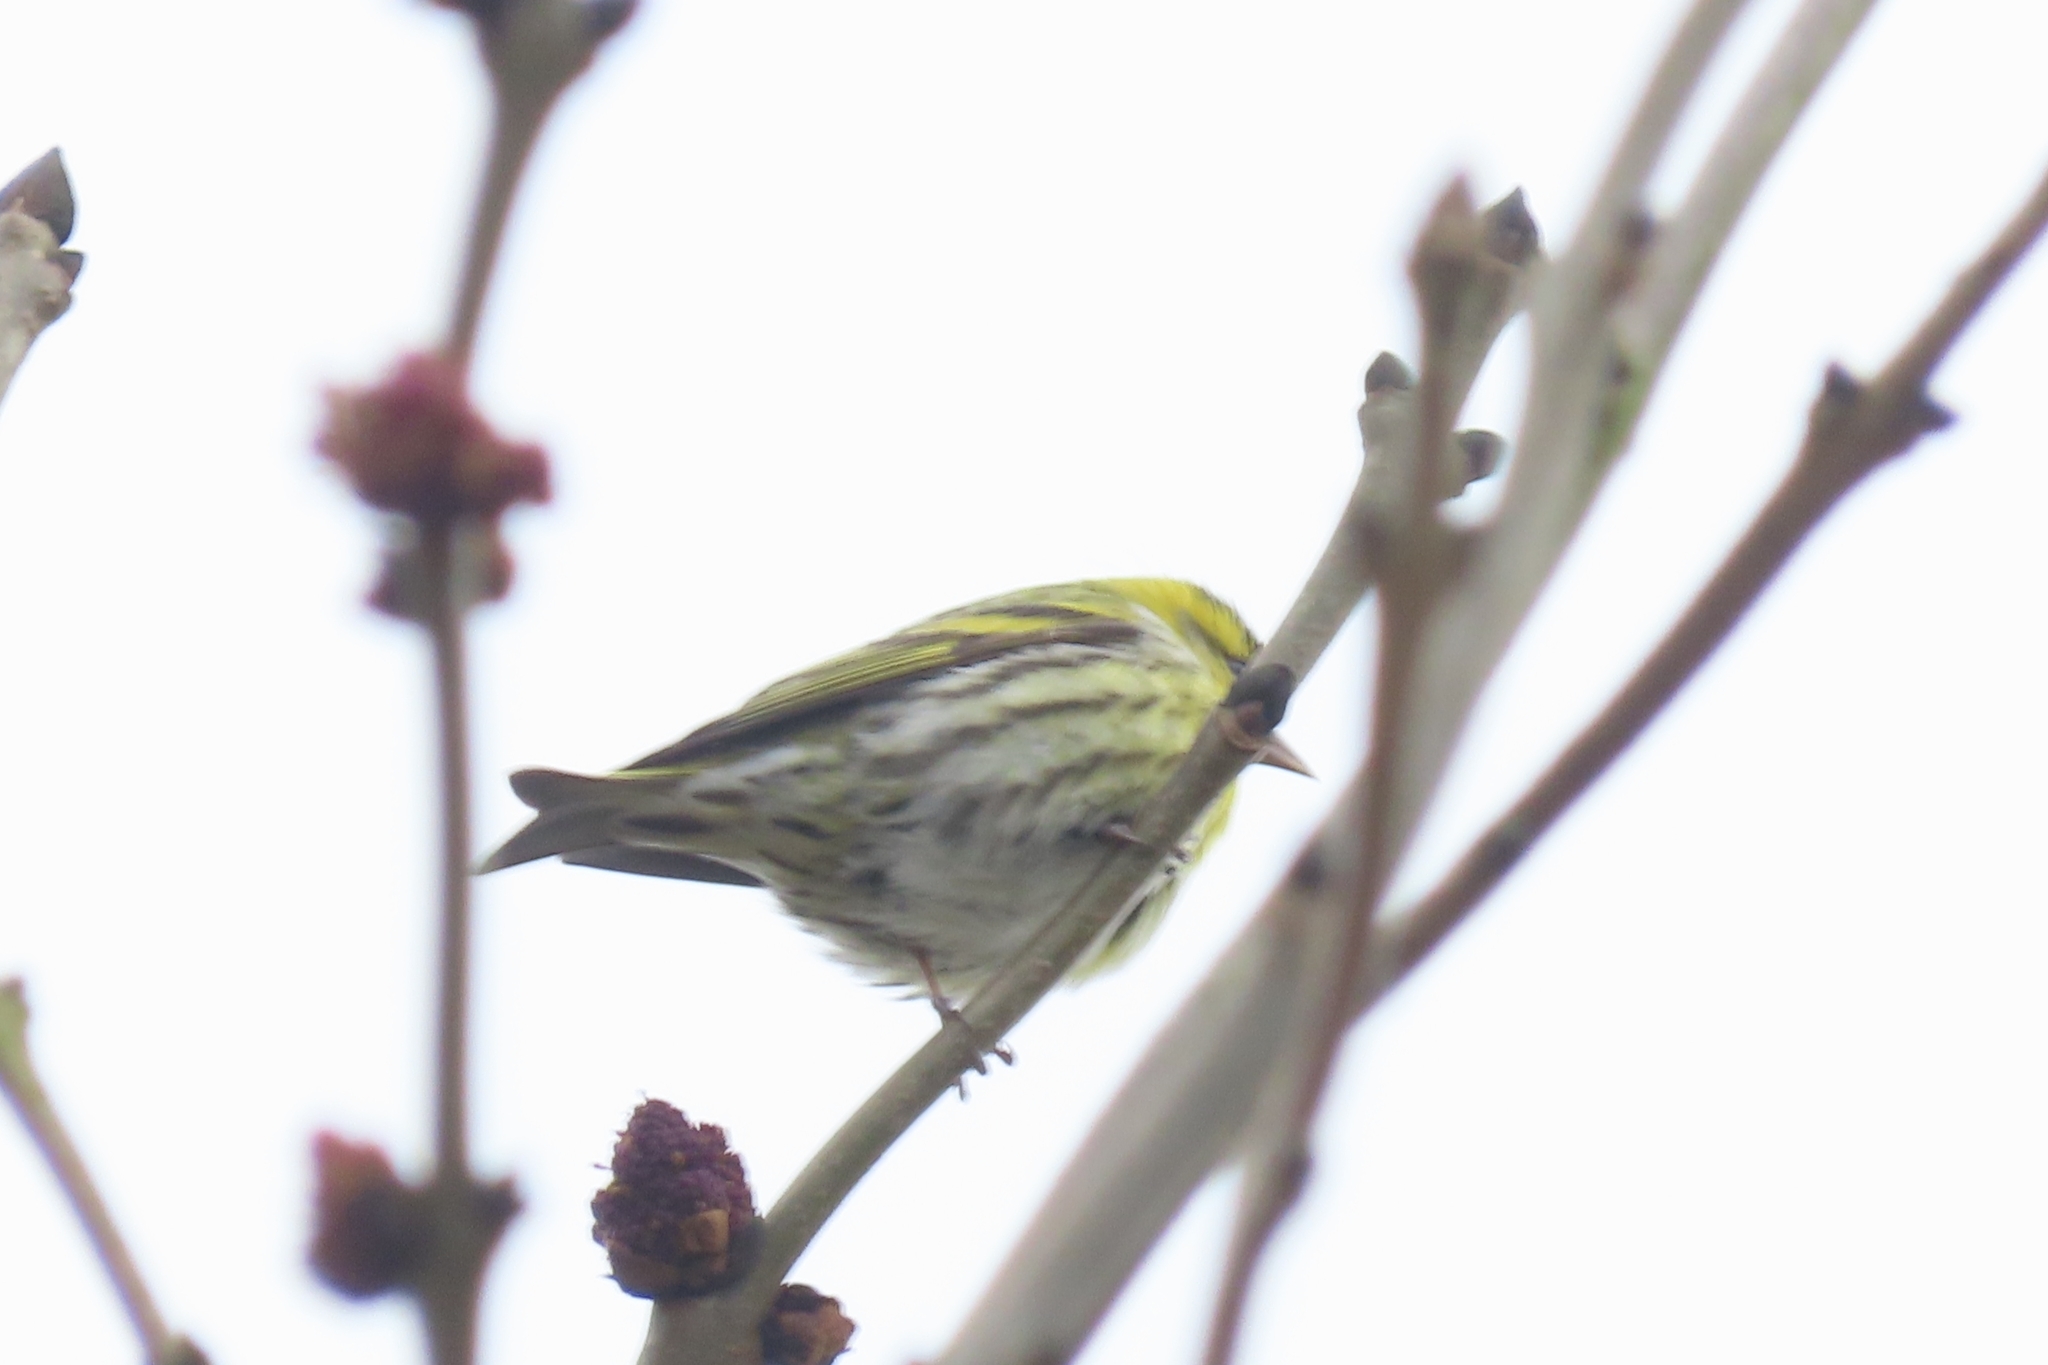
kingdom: Animalia
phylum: Chordata
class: Aves
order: Passeriformes
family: Fringillidae
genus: Spinus
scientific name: Spinus spinus
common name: Eurasian siskin
